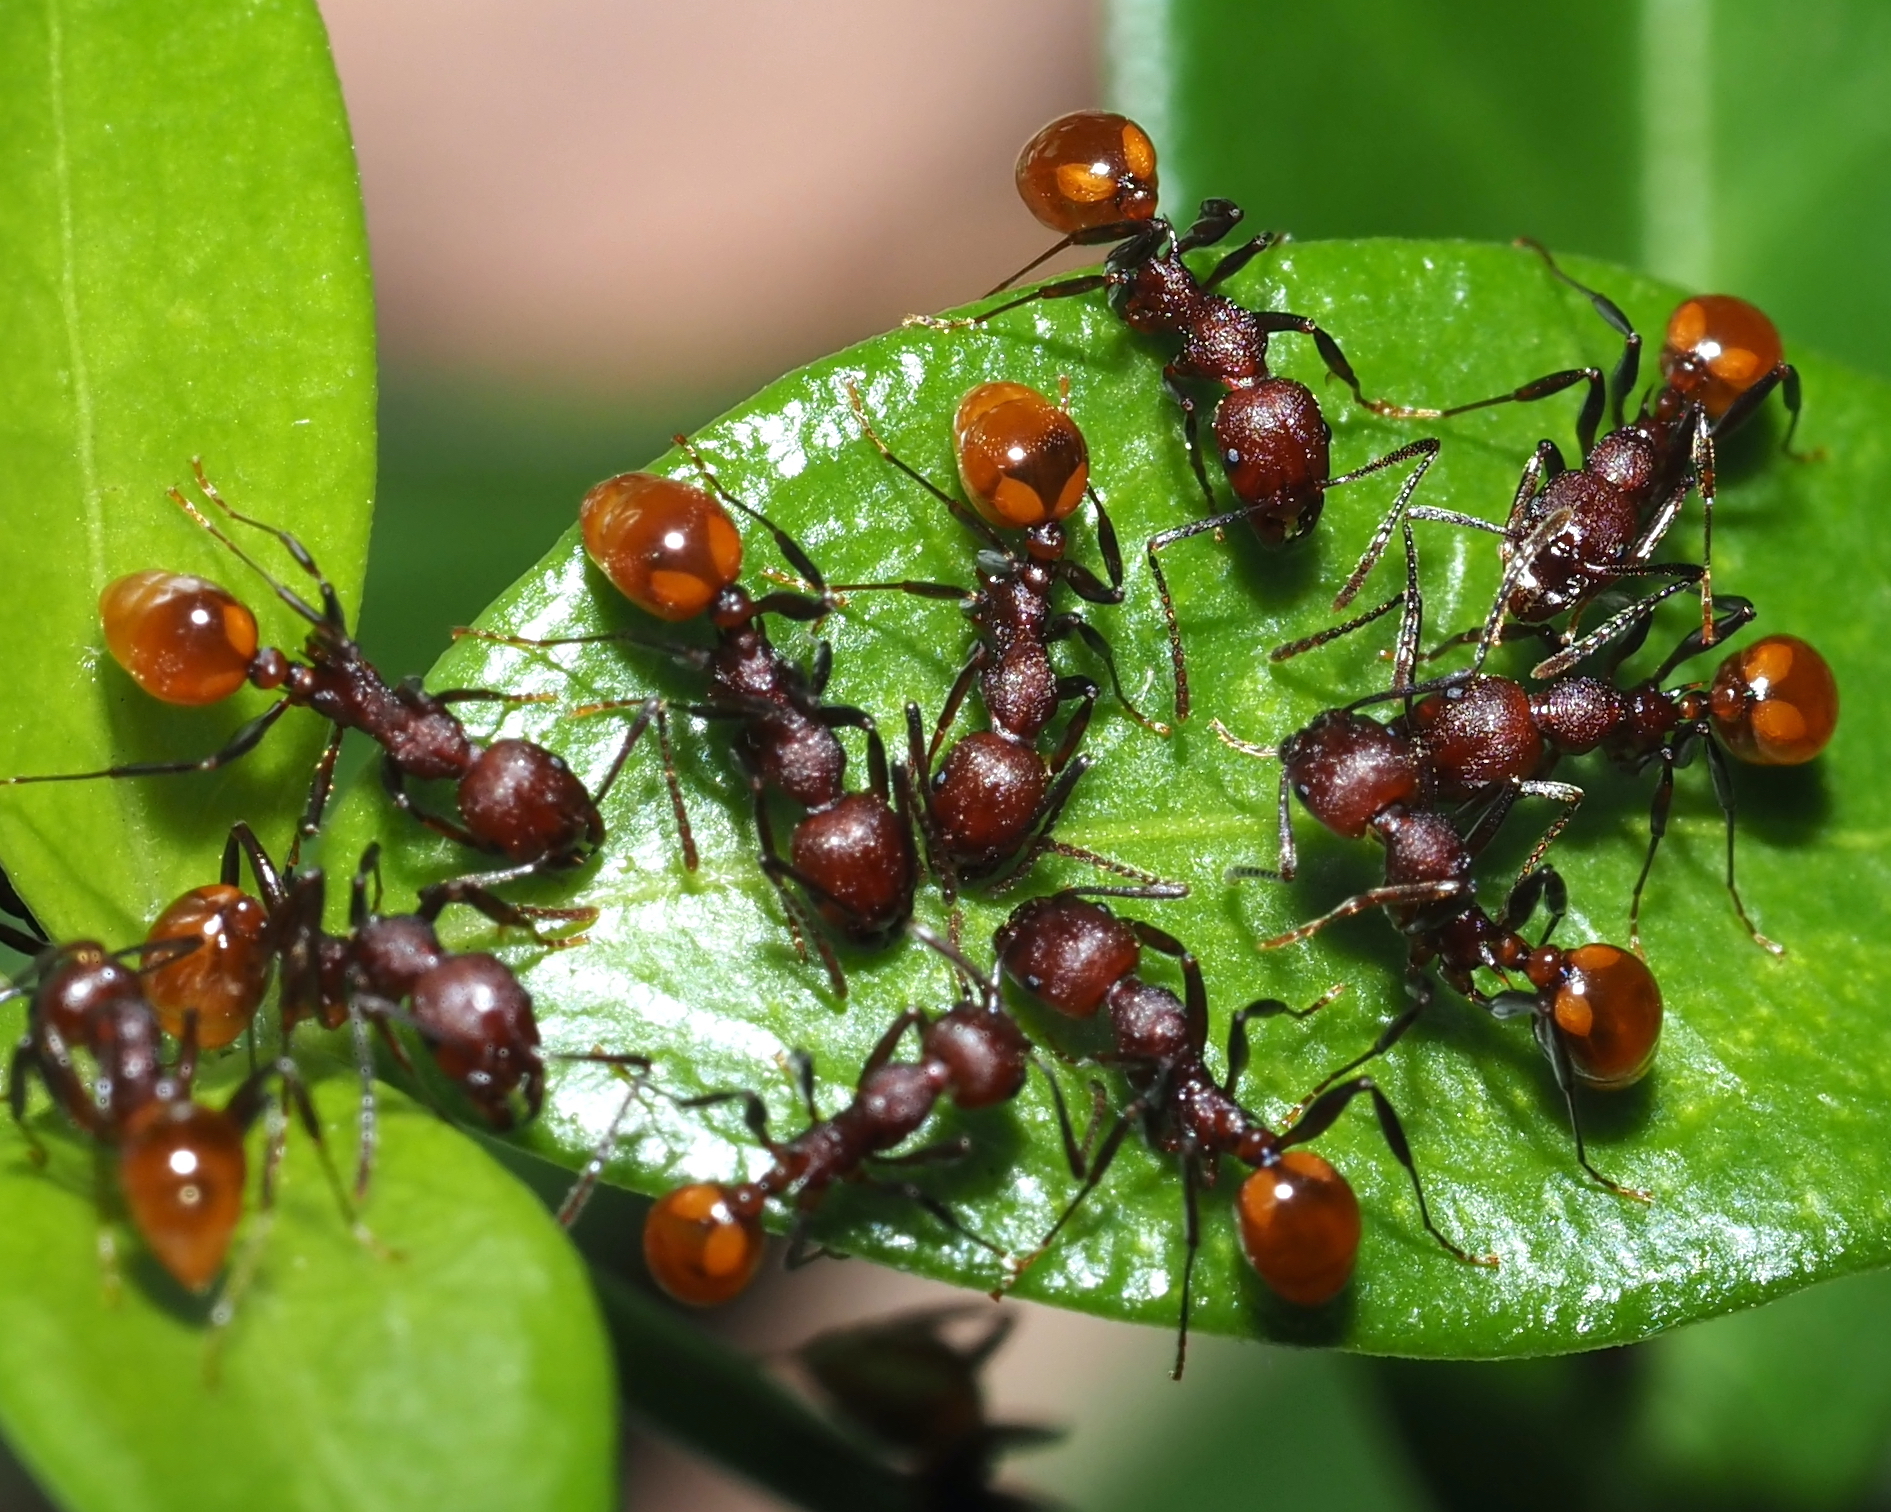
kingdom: Animalia
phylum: Arthropoda
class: Insecta
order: Hymenoptera
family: Formicidae
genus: Aphaenogaster
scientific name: Aphaenogaster tennesseensis
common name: Tennessee thread-waisted ant
